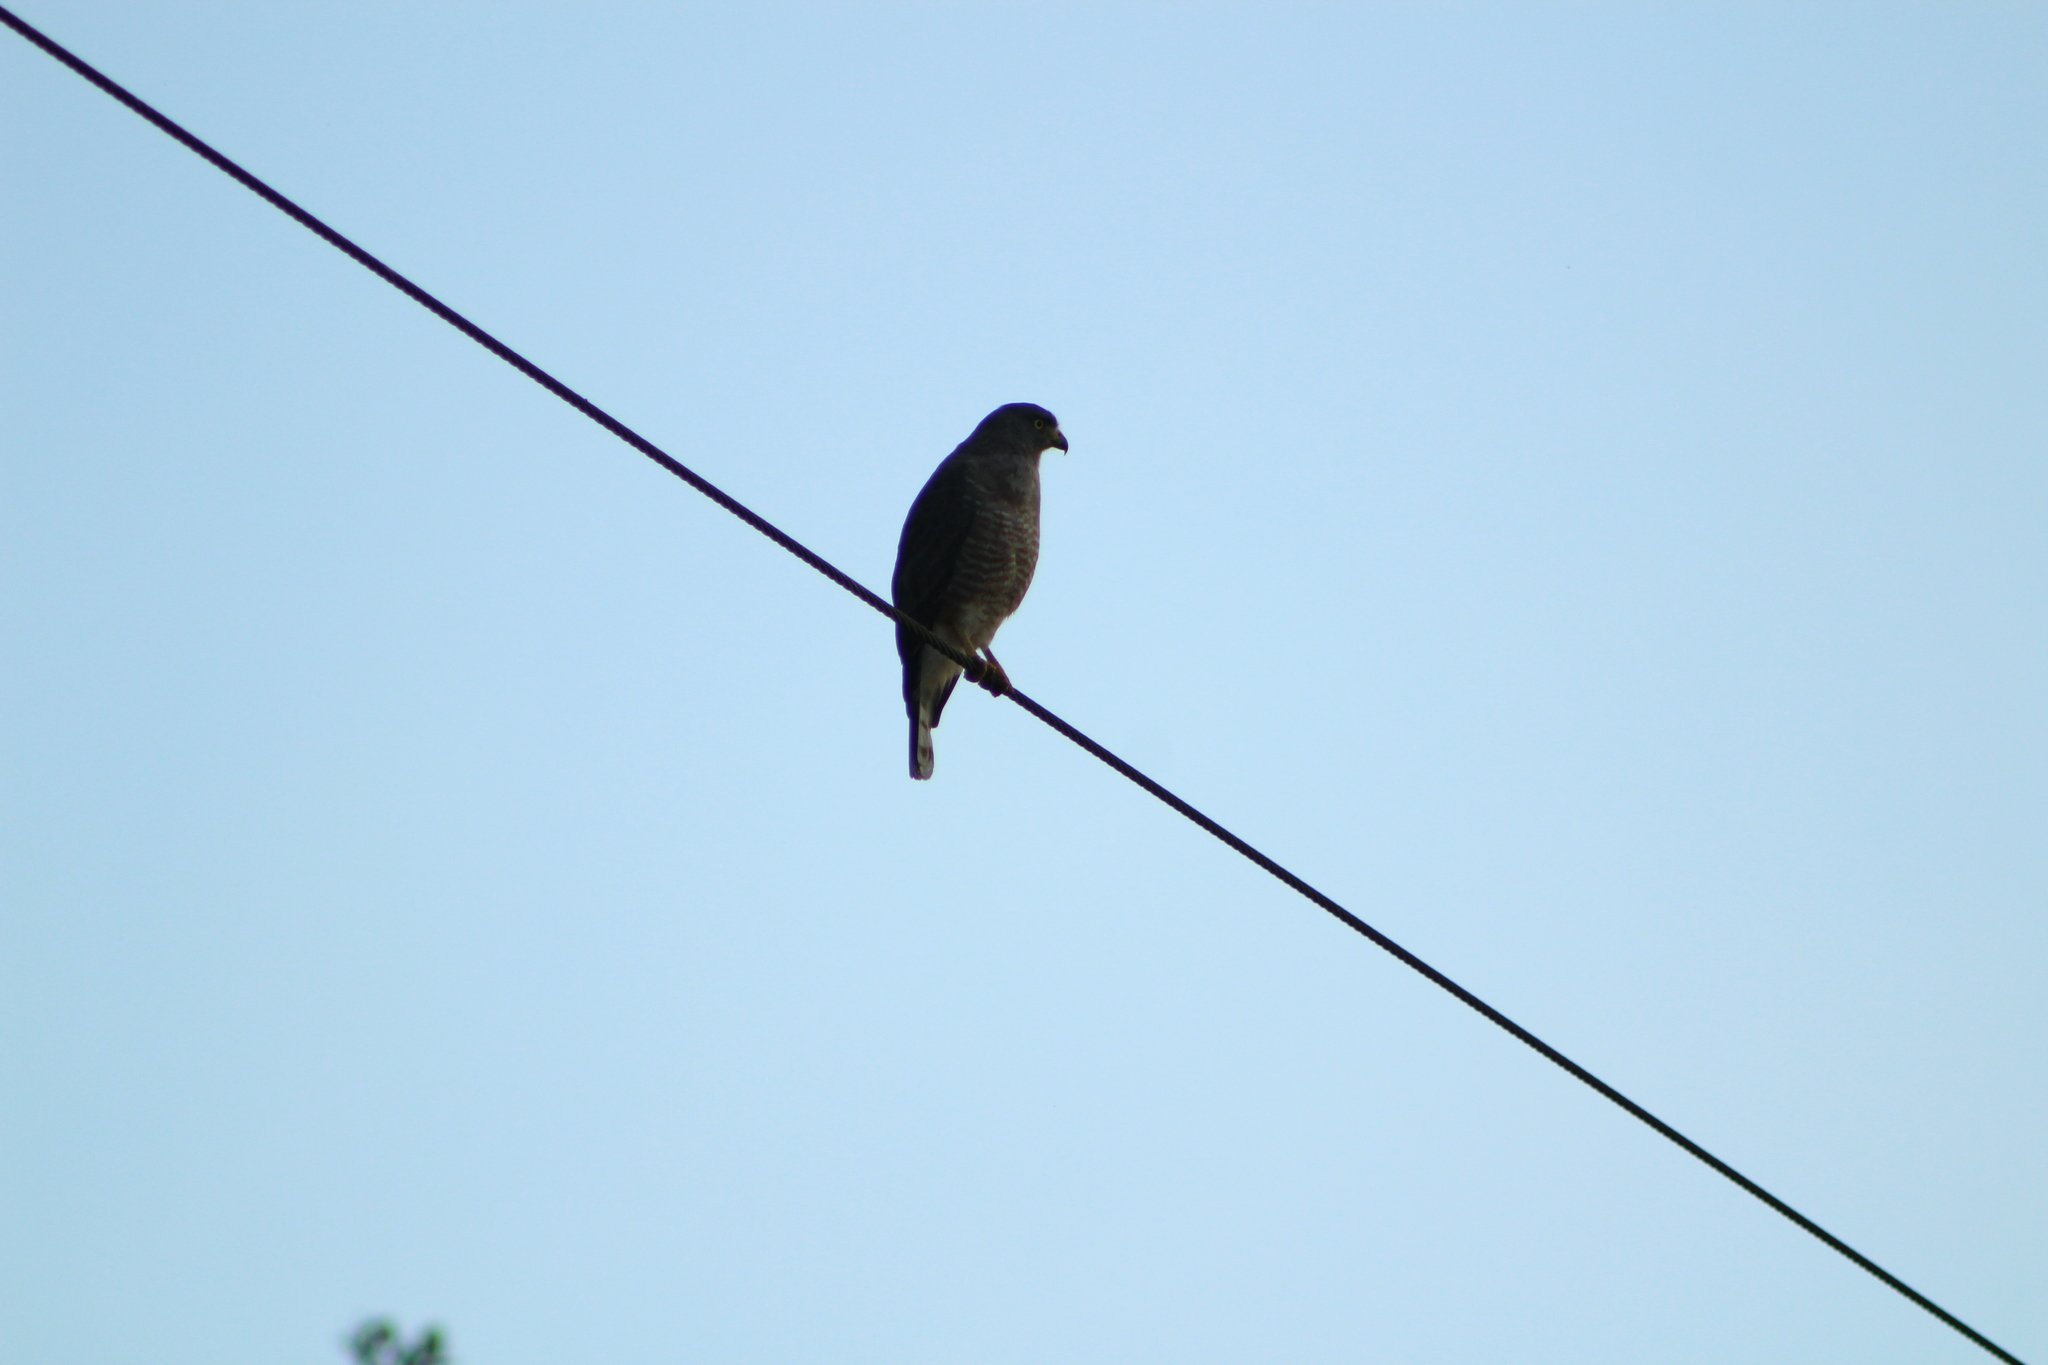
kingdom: Animalia
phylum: Chordata
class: Aves
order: Accipitriformes
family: Accipitridae
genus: Rupornis
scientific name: Rupornis magnirostris
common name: Roadside hawk
